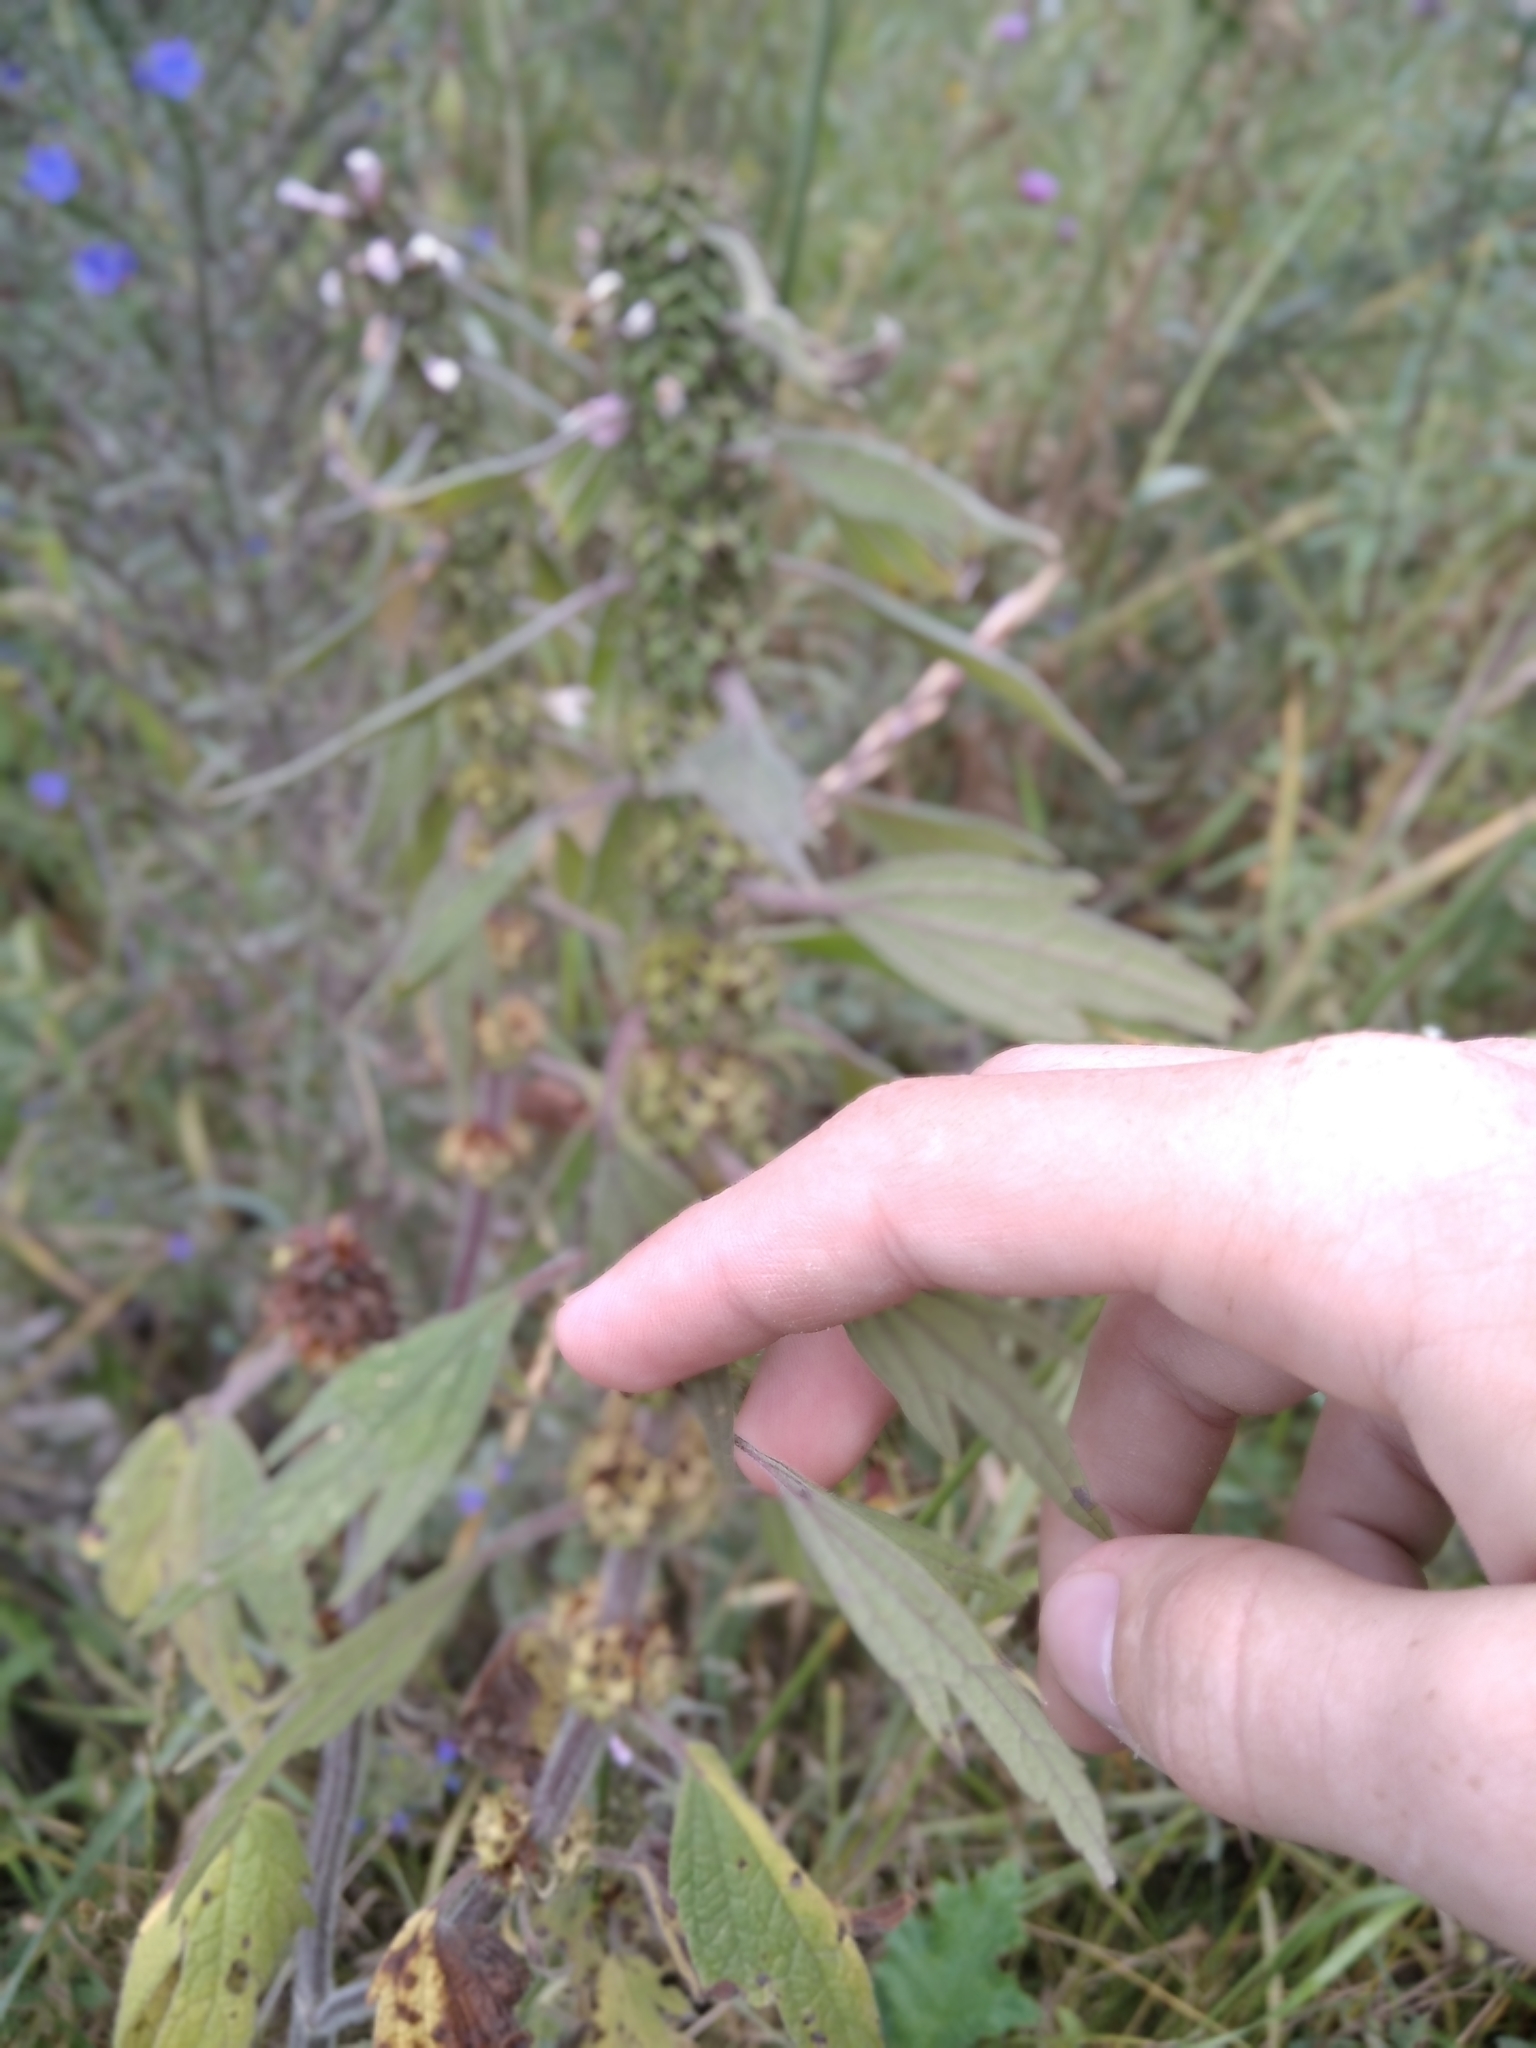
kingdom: Plantae
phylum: Tracheophyta
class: Magnoliopsida
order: Lamiales
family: Lamiaceae
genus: Leonurus
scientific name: Leonurus quinquelobatus
